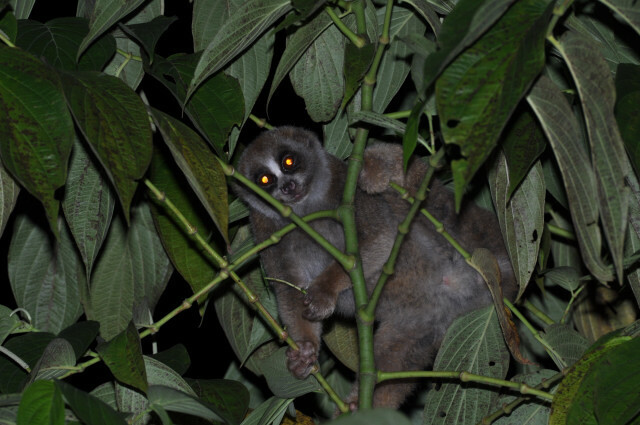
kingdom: Animalia
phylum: Chordata
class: Mammalia
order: Primates
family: Lorisidae
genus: Nycticebus
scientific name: Nycticebus coucang
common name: Sunda slow loris
